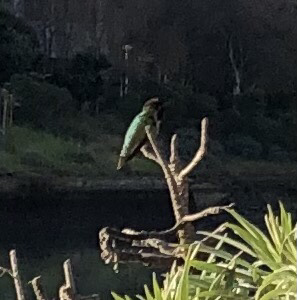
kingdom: Animalia
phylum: Chordata
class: Aves
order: Apodiformes
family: Trochilidae
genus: Calypte
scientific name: Calypte anna
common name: Anna's hummingbird
